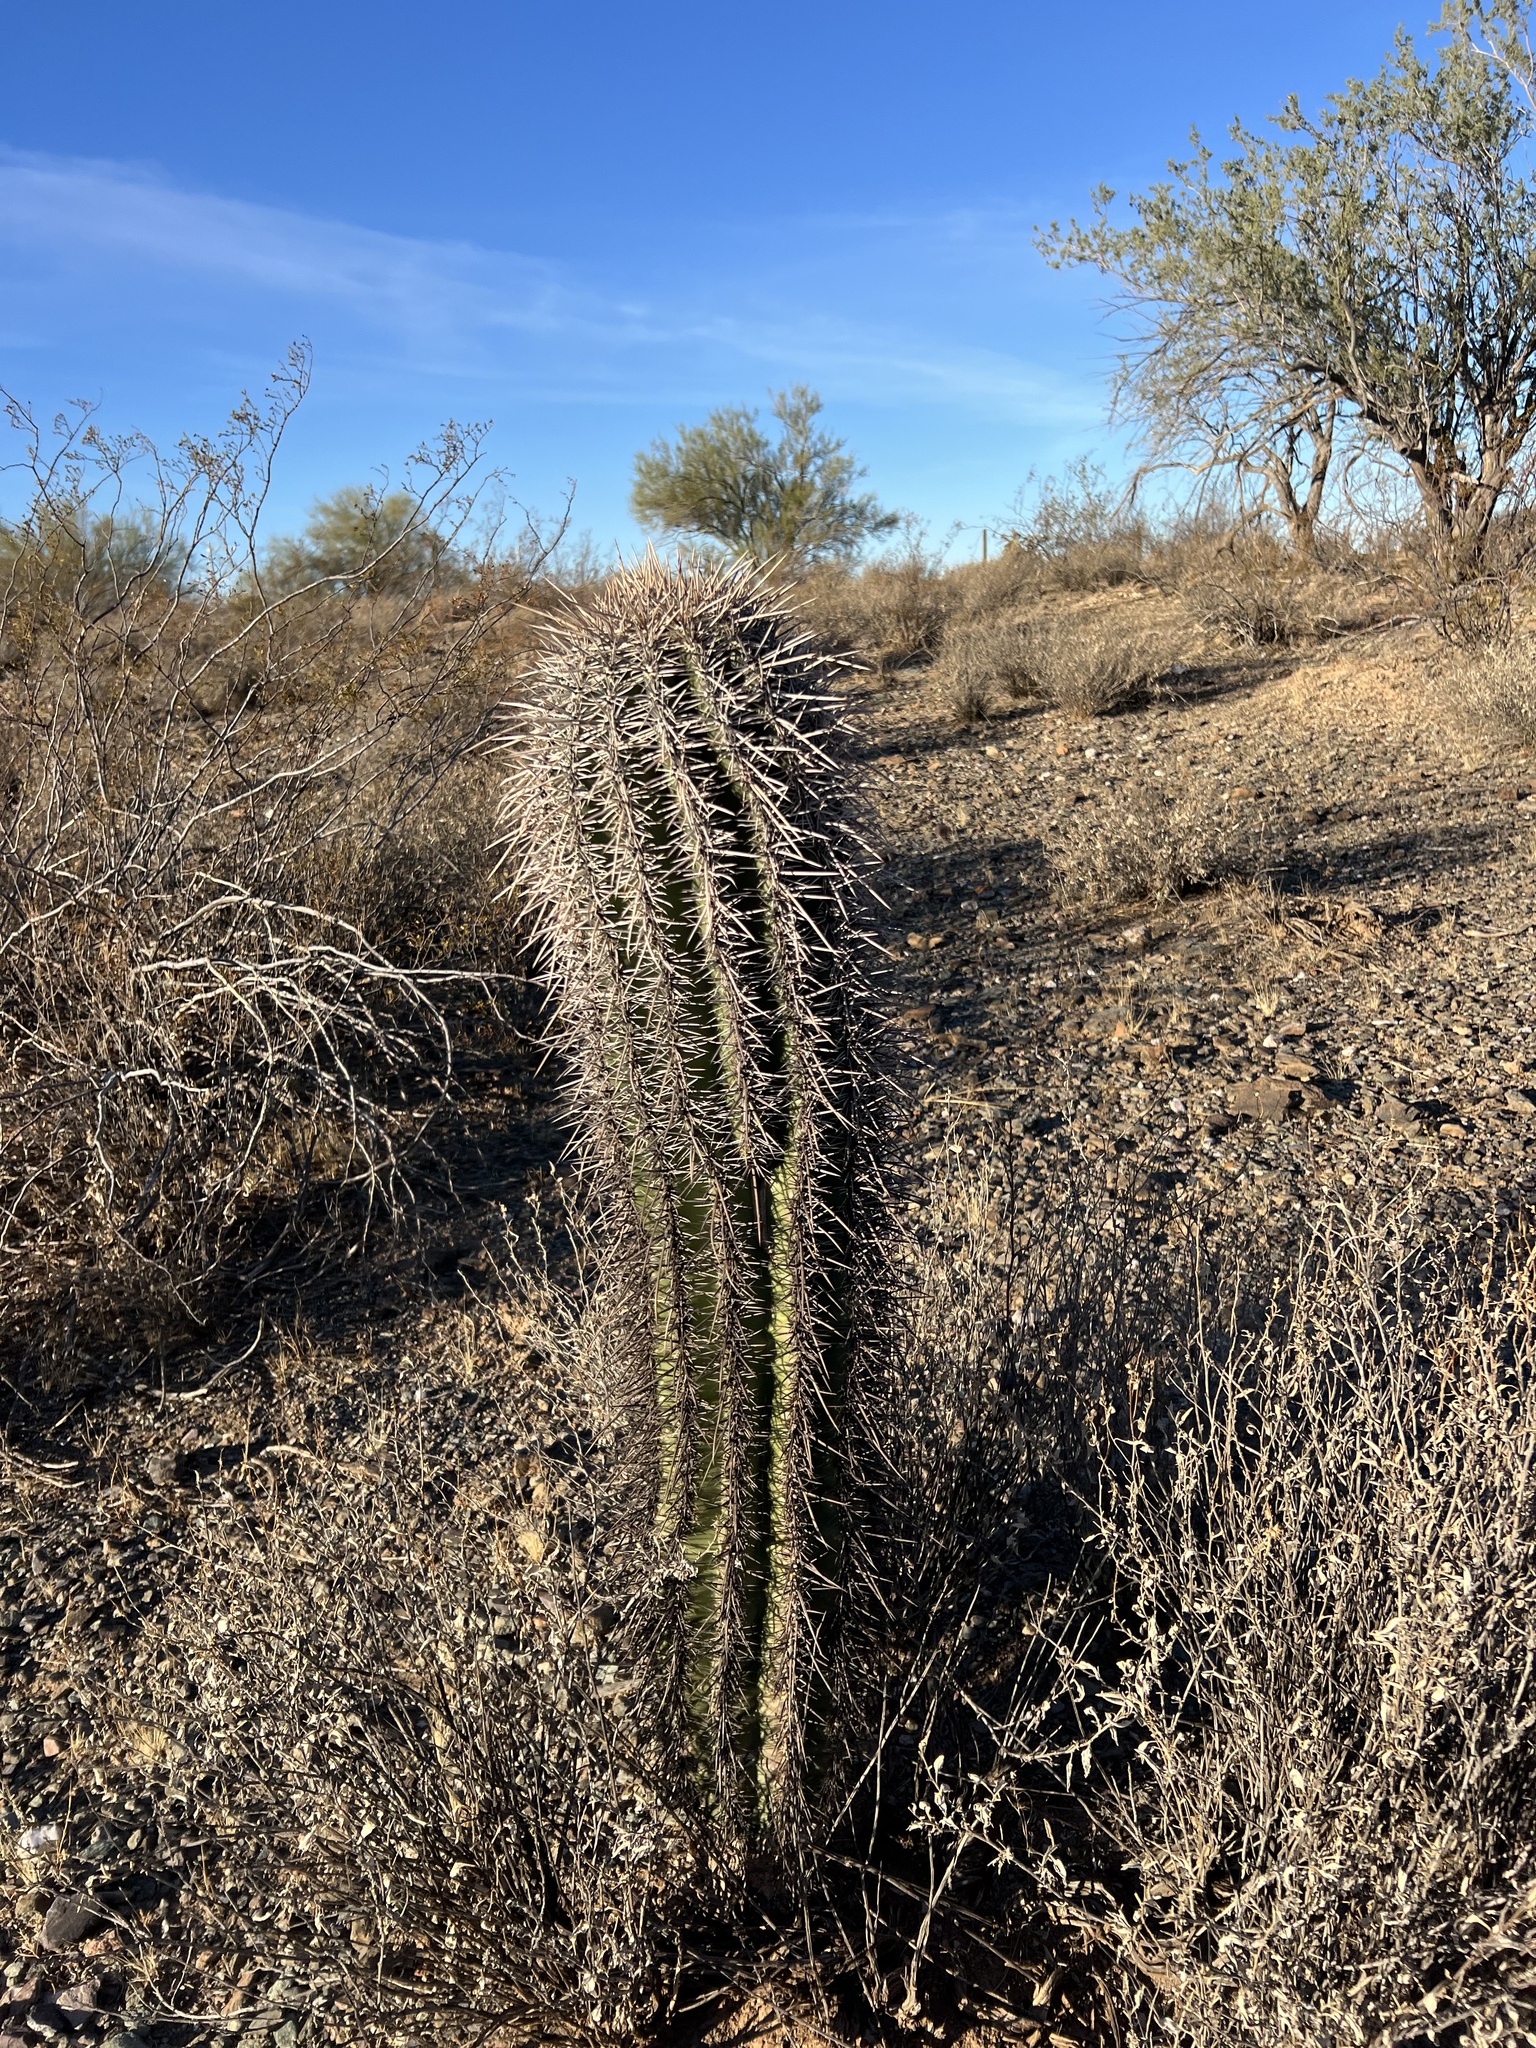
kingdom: Plantae
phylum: Tracheophyta
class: Magnoliopsida
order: Caryophyllales
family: Cactaceae
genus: Carnegiea
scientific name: Carnegiea gigantea
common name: Saguaro
